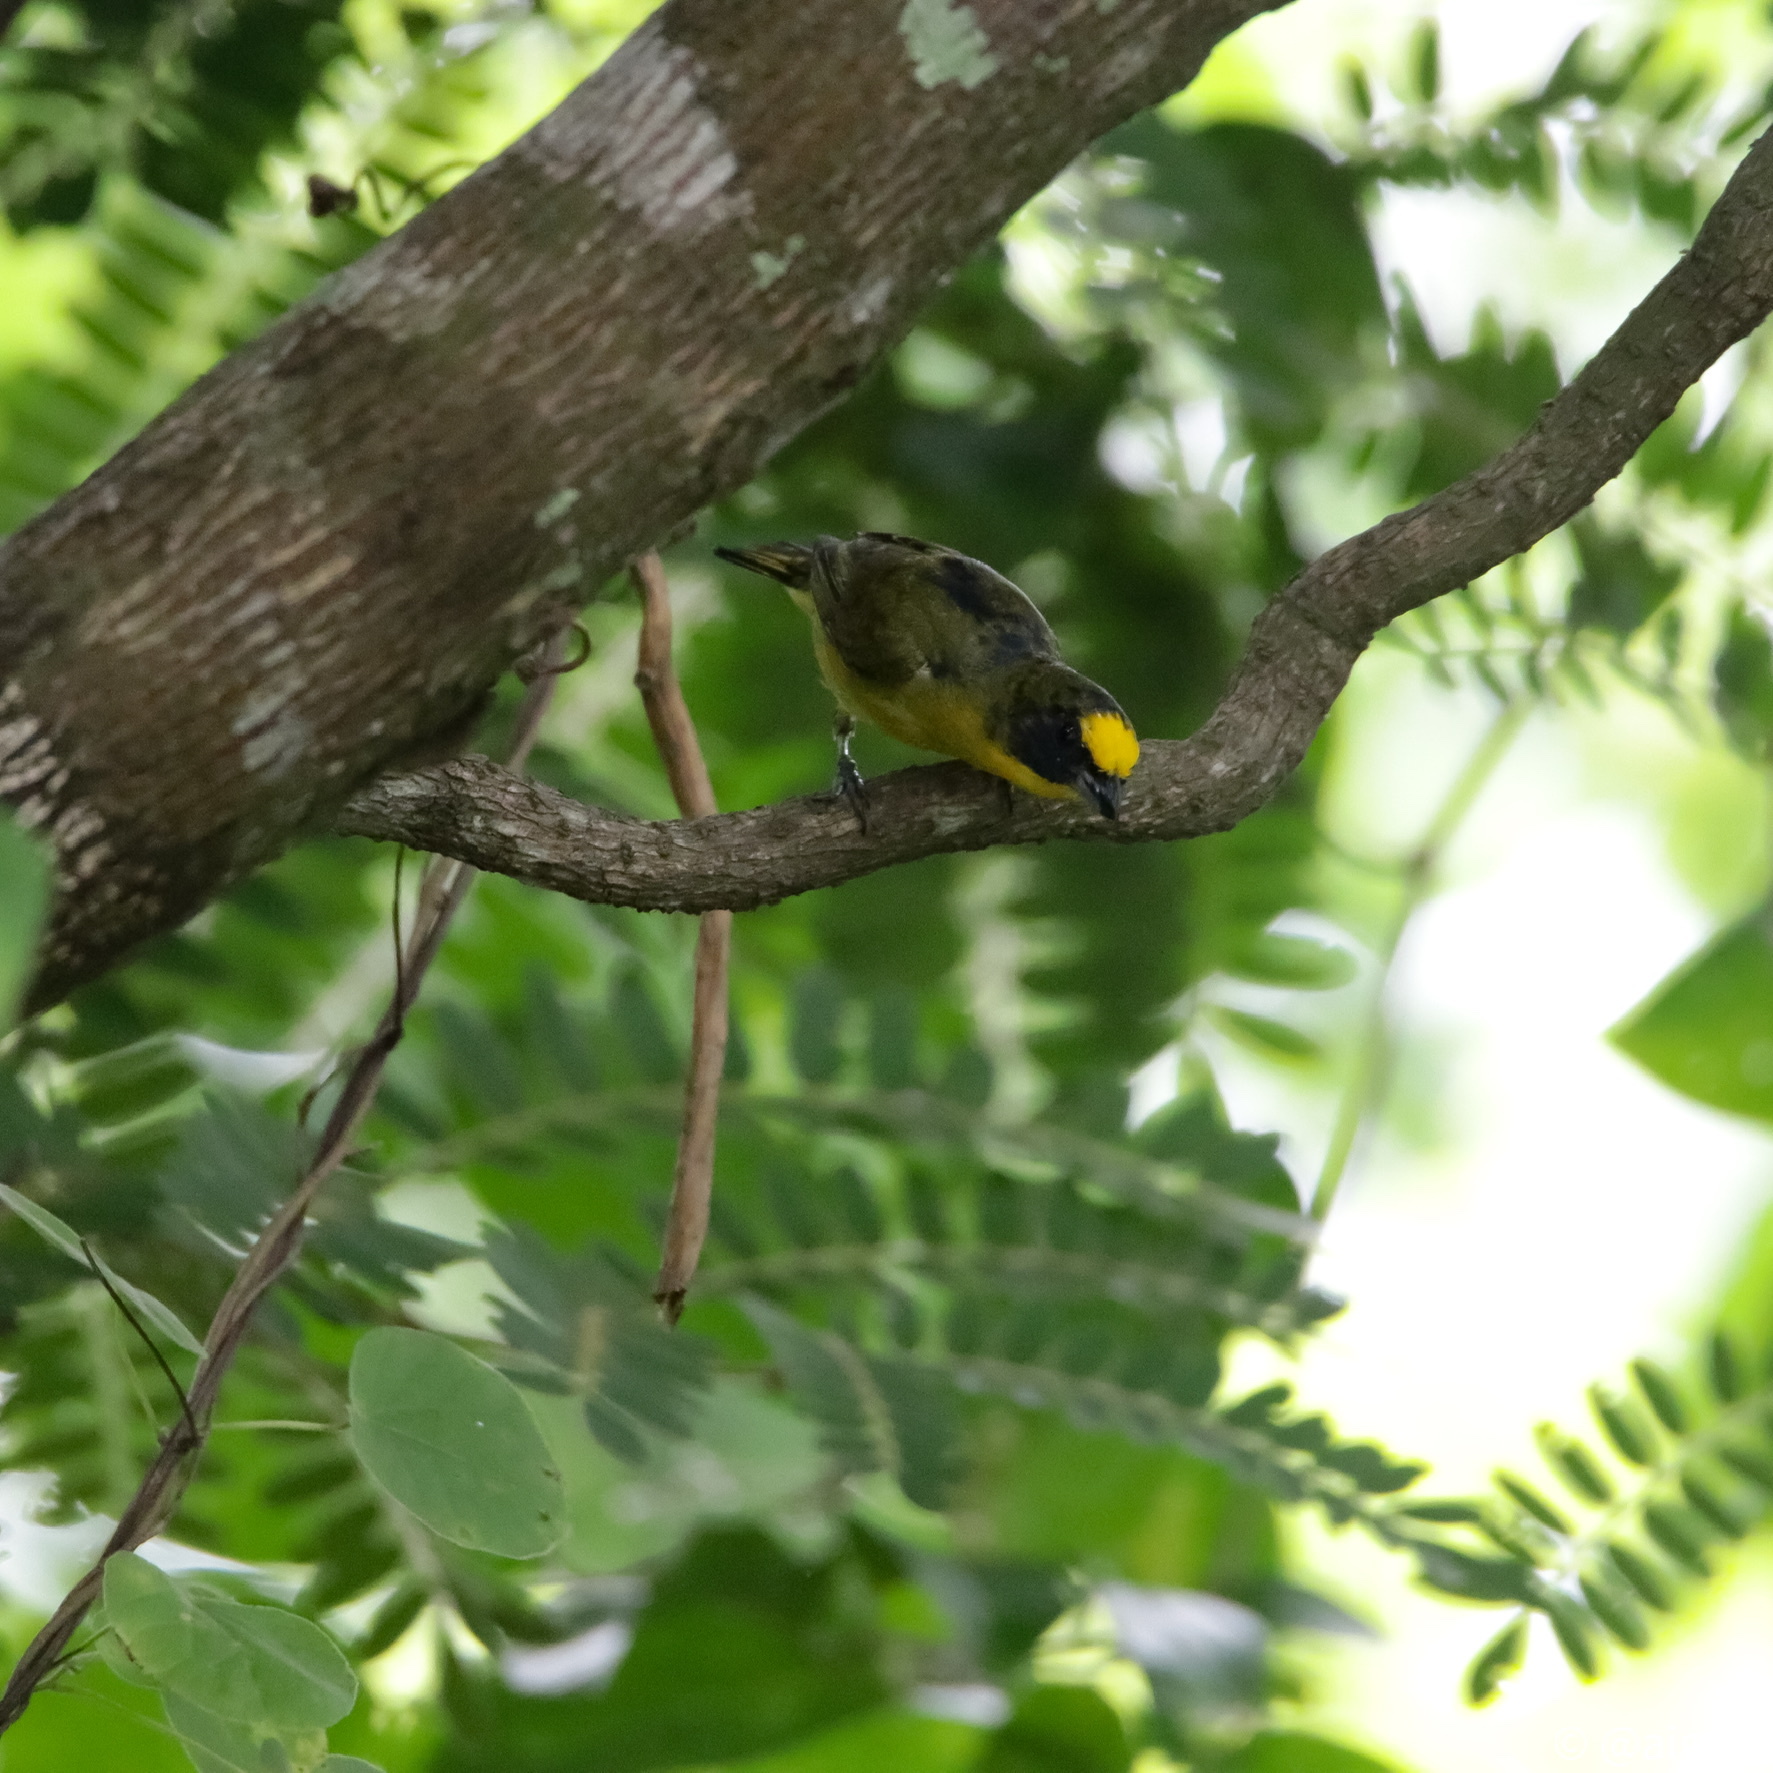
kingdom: Animalia
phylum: Chordata
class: Aves
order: Passeriformes
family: Fringillidae
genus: Euphonia
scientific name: Euphonia laniirostris
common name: Thick-billed euphonia
